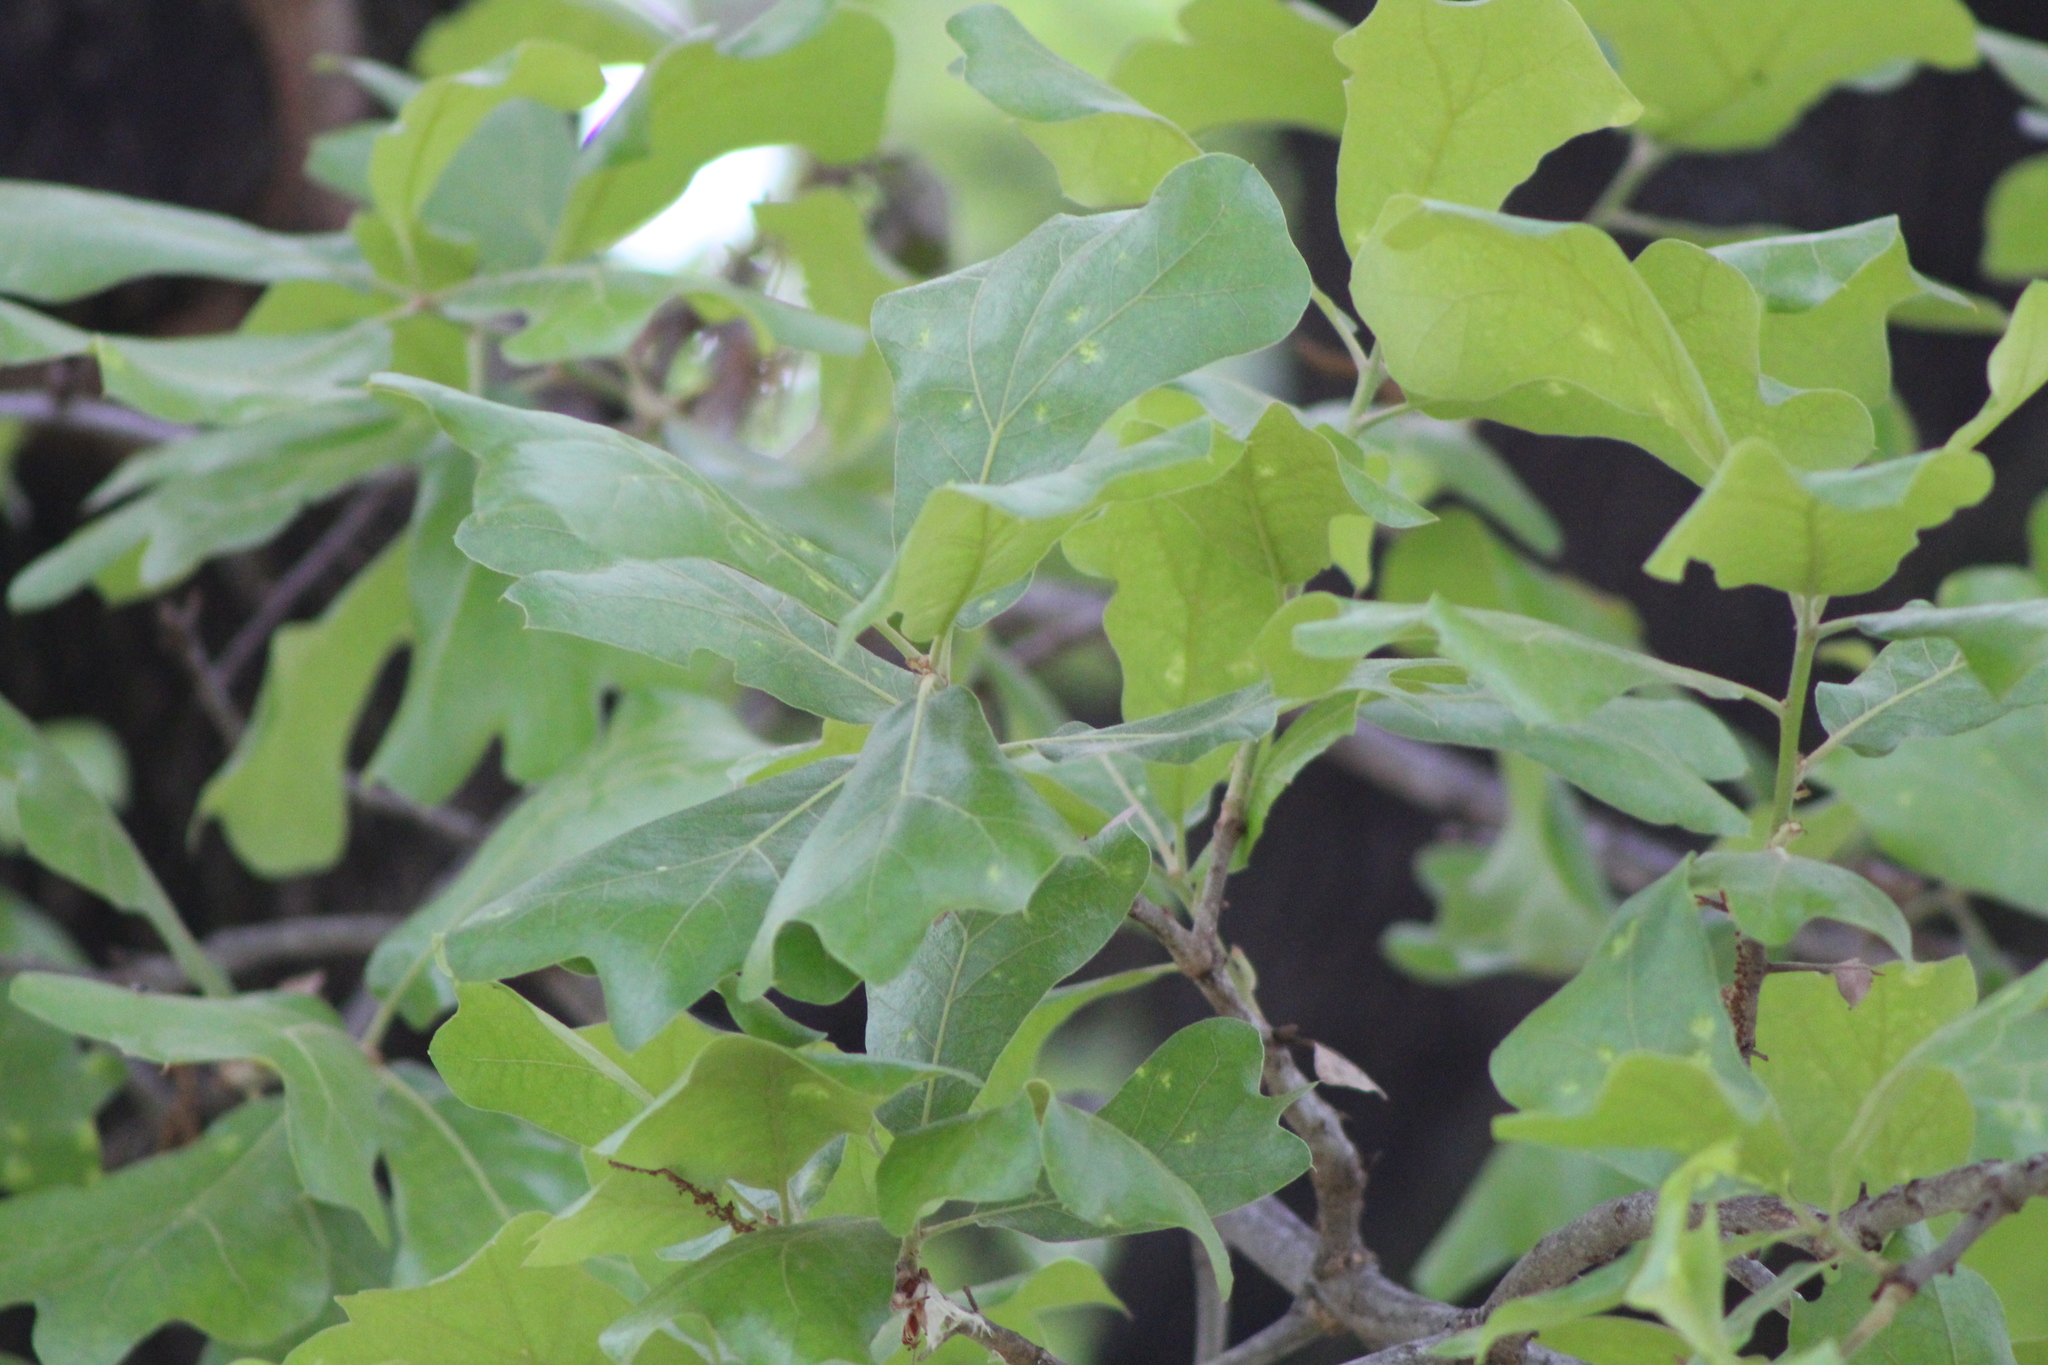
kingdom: Plantae
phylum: Tracheophyta
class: Magnoliopsida
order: Fagales
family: Fagaceae
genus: Quercus
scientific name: Quercus marilandica
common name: Blackjack oak
